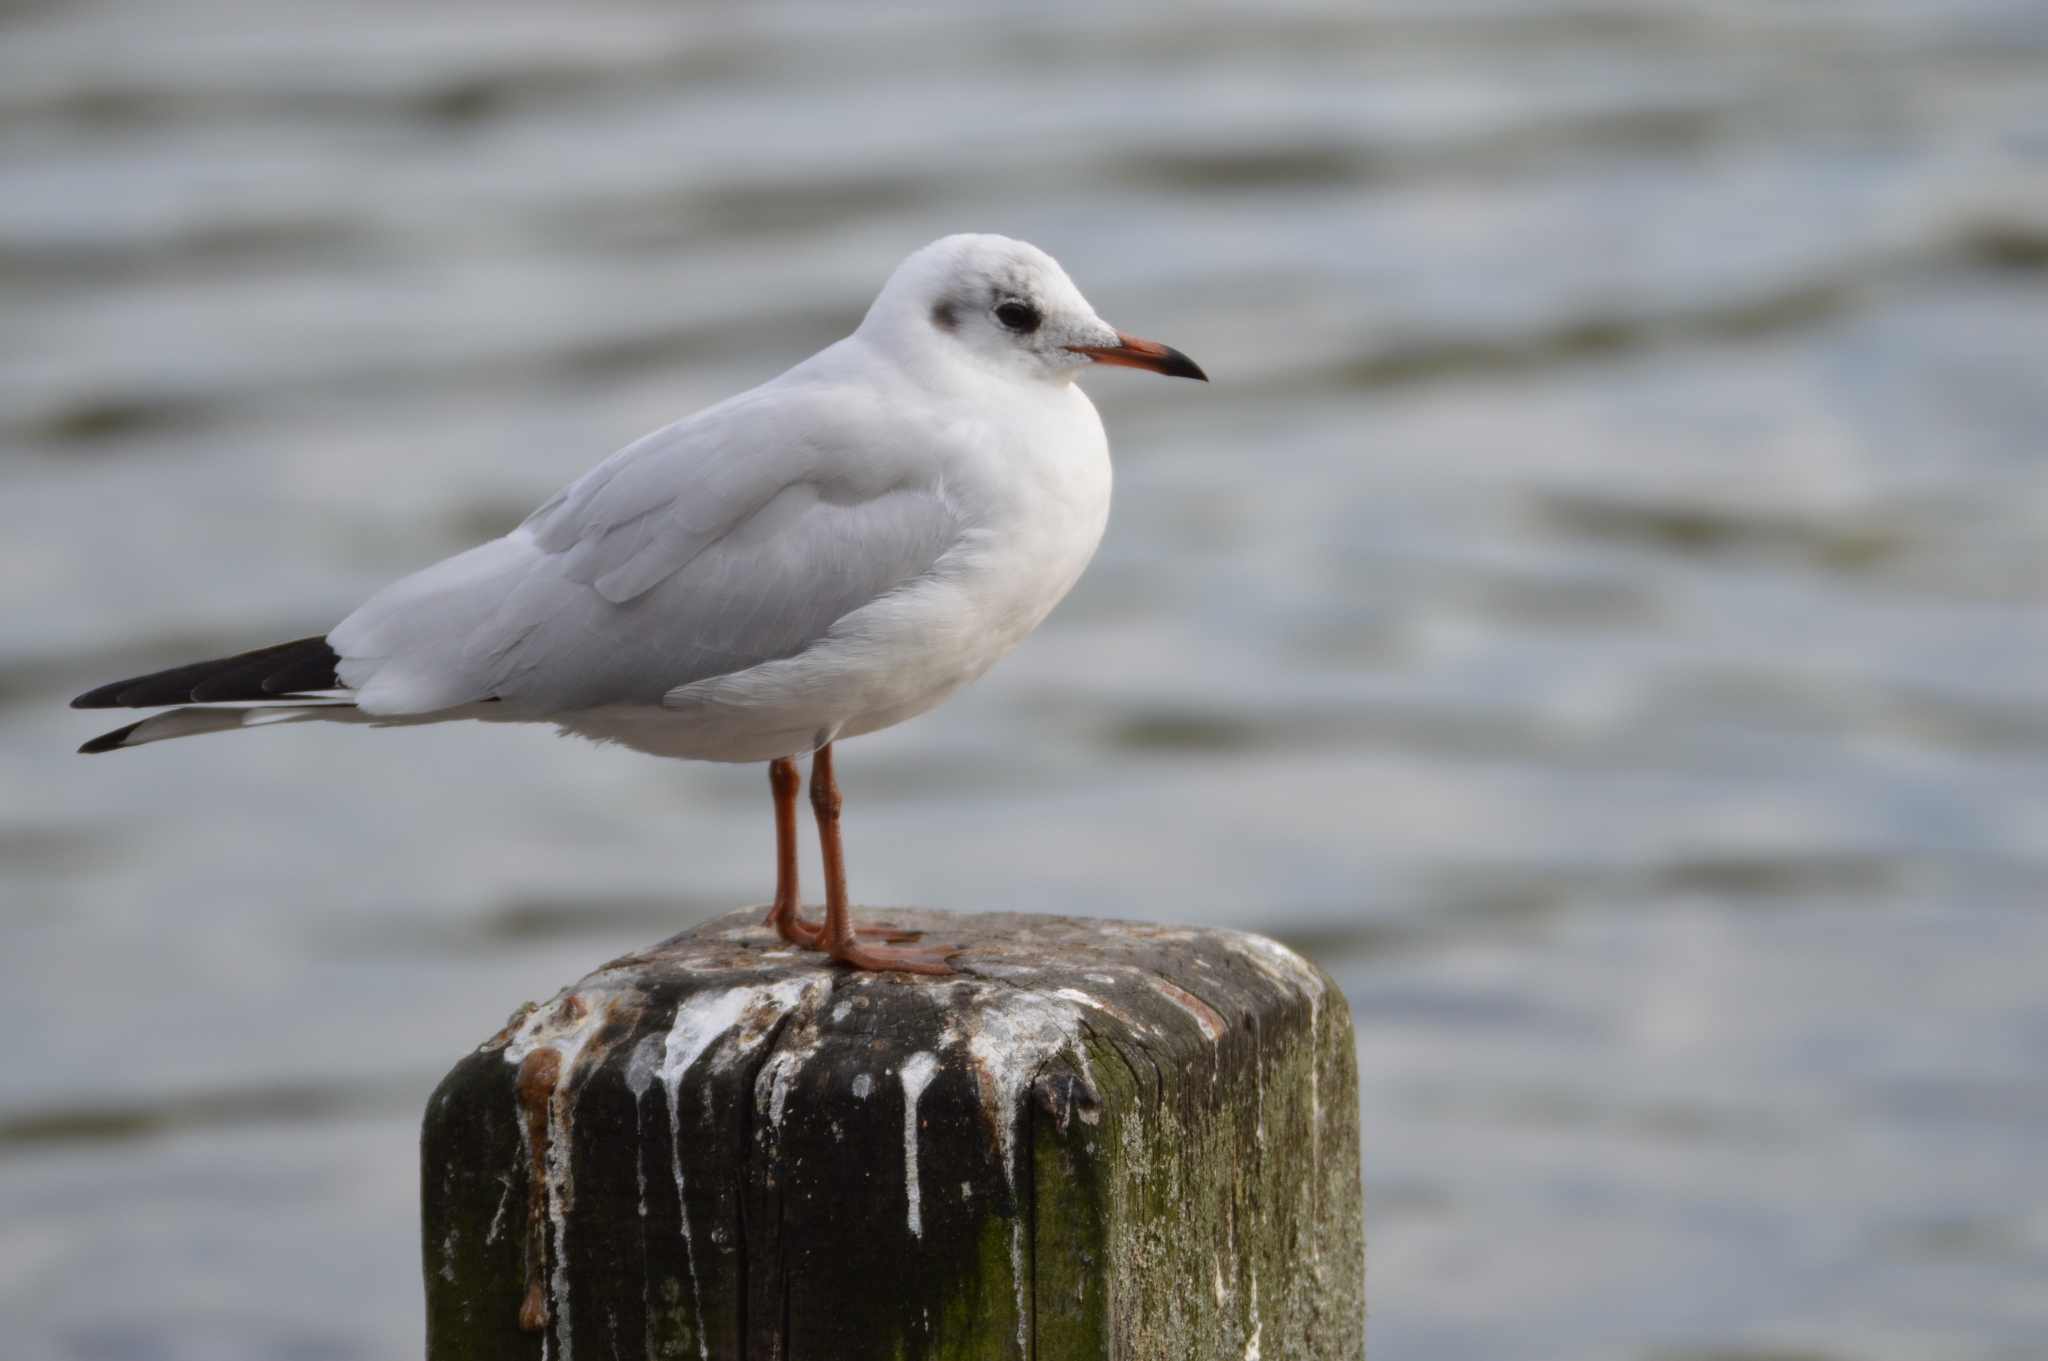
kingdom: Animalia
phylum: Chordata
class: Aves
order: Charadriiformes
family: Laridae
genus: Chroicocephalus
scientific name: Chroicocephalus ridibundus
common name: Black-headed gull
